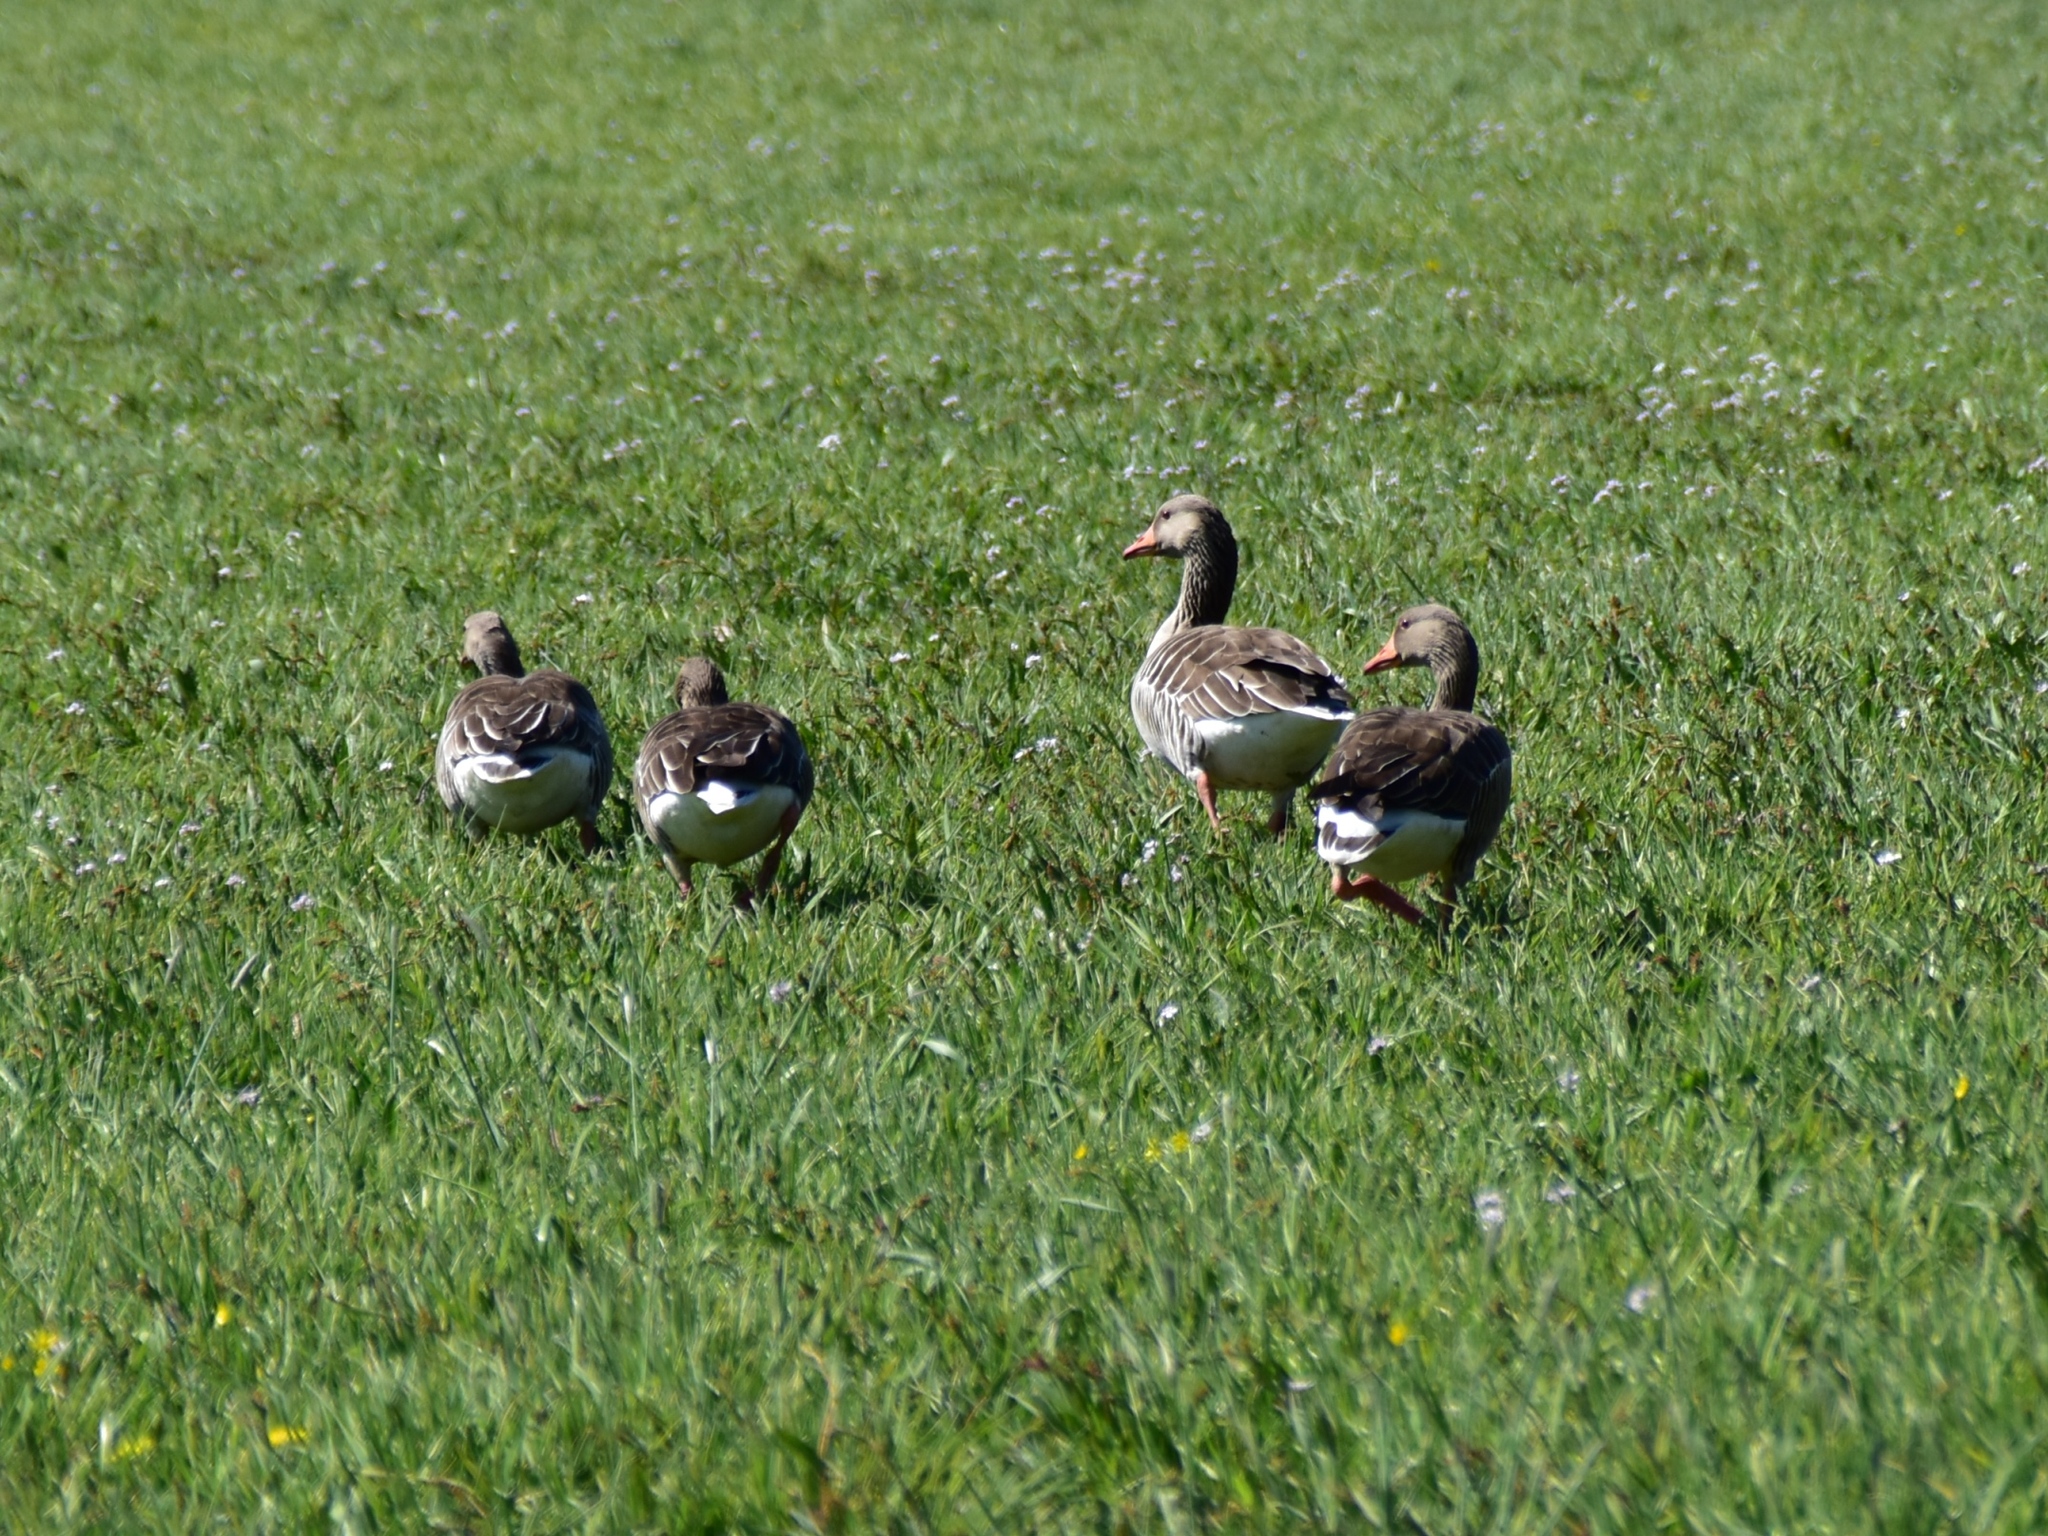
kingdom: Animalia
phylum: Chordata
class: Aves
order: Anseriformes
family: Anatidae
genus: Anser
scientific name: Anser anser
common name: Greylag goose
